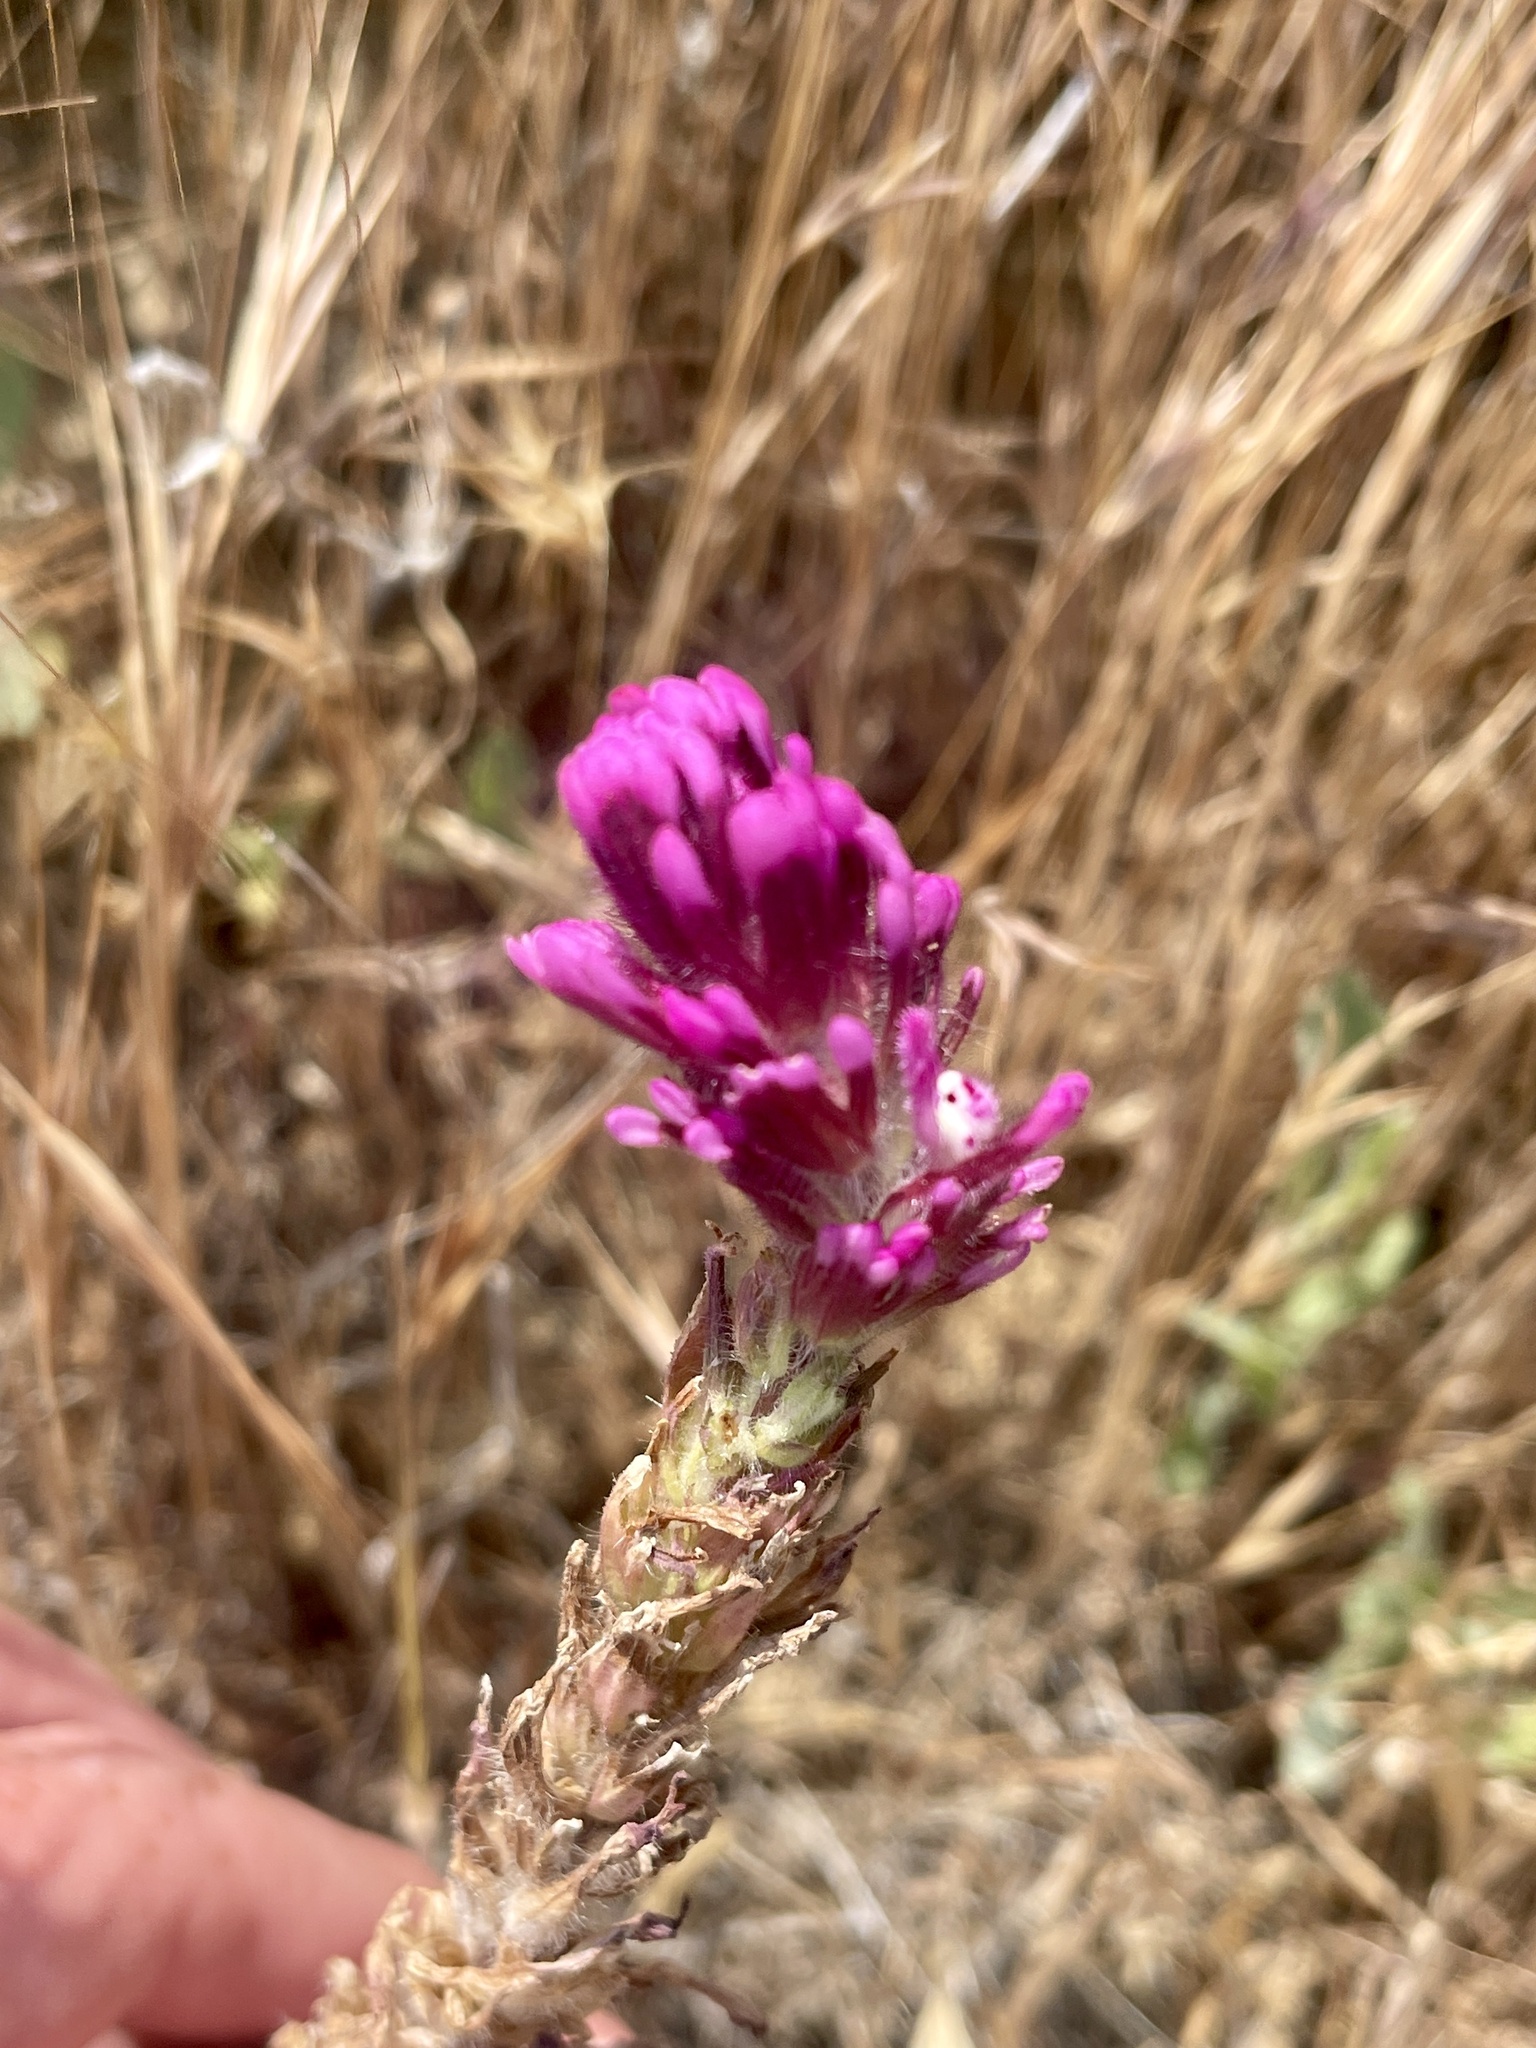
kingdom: Plantae
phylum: Tracheophyta
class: Magnoliopsida
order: Lamiales
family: Orobanchaceae
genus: Castilleja
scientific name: Castilleja exserta
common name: Purple owl-clover
